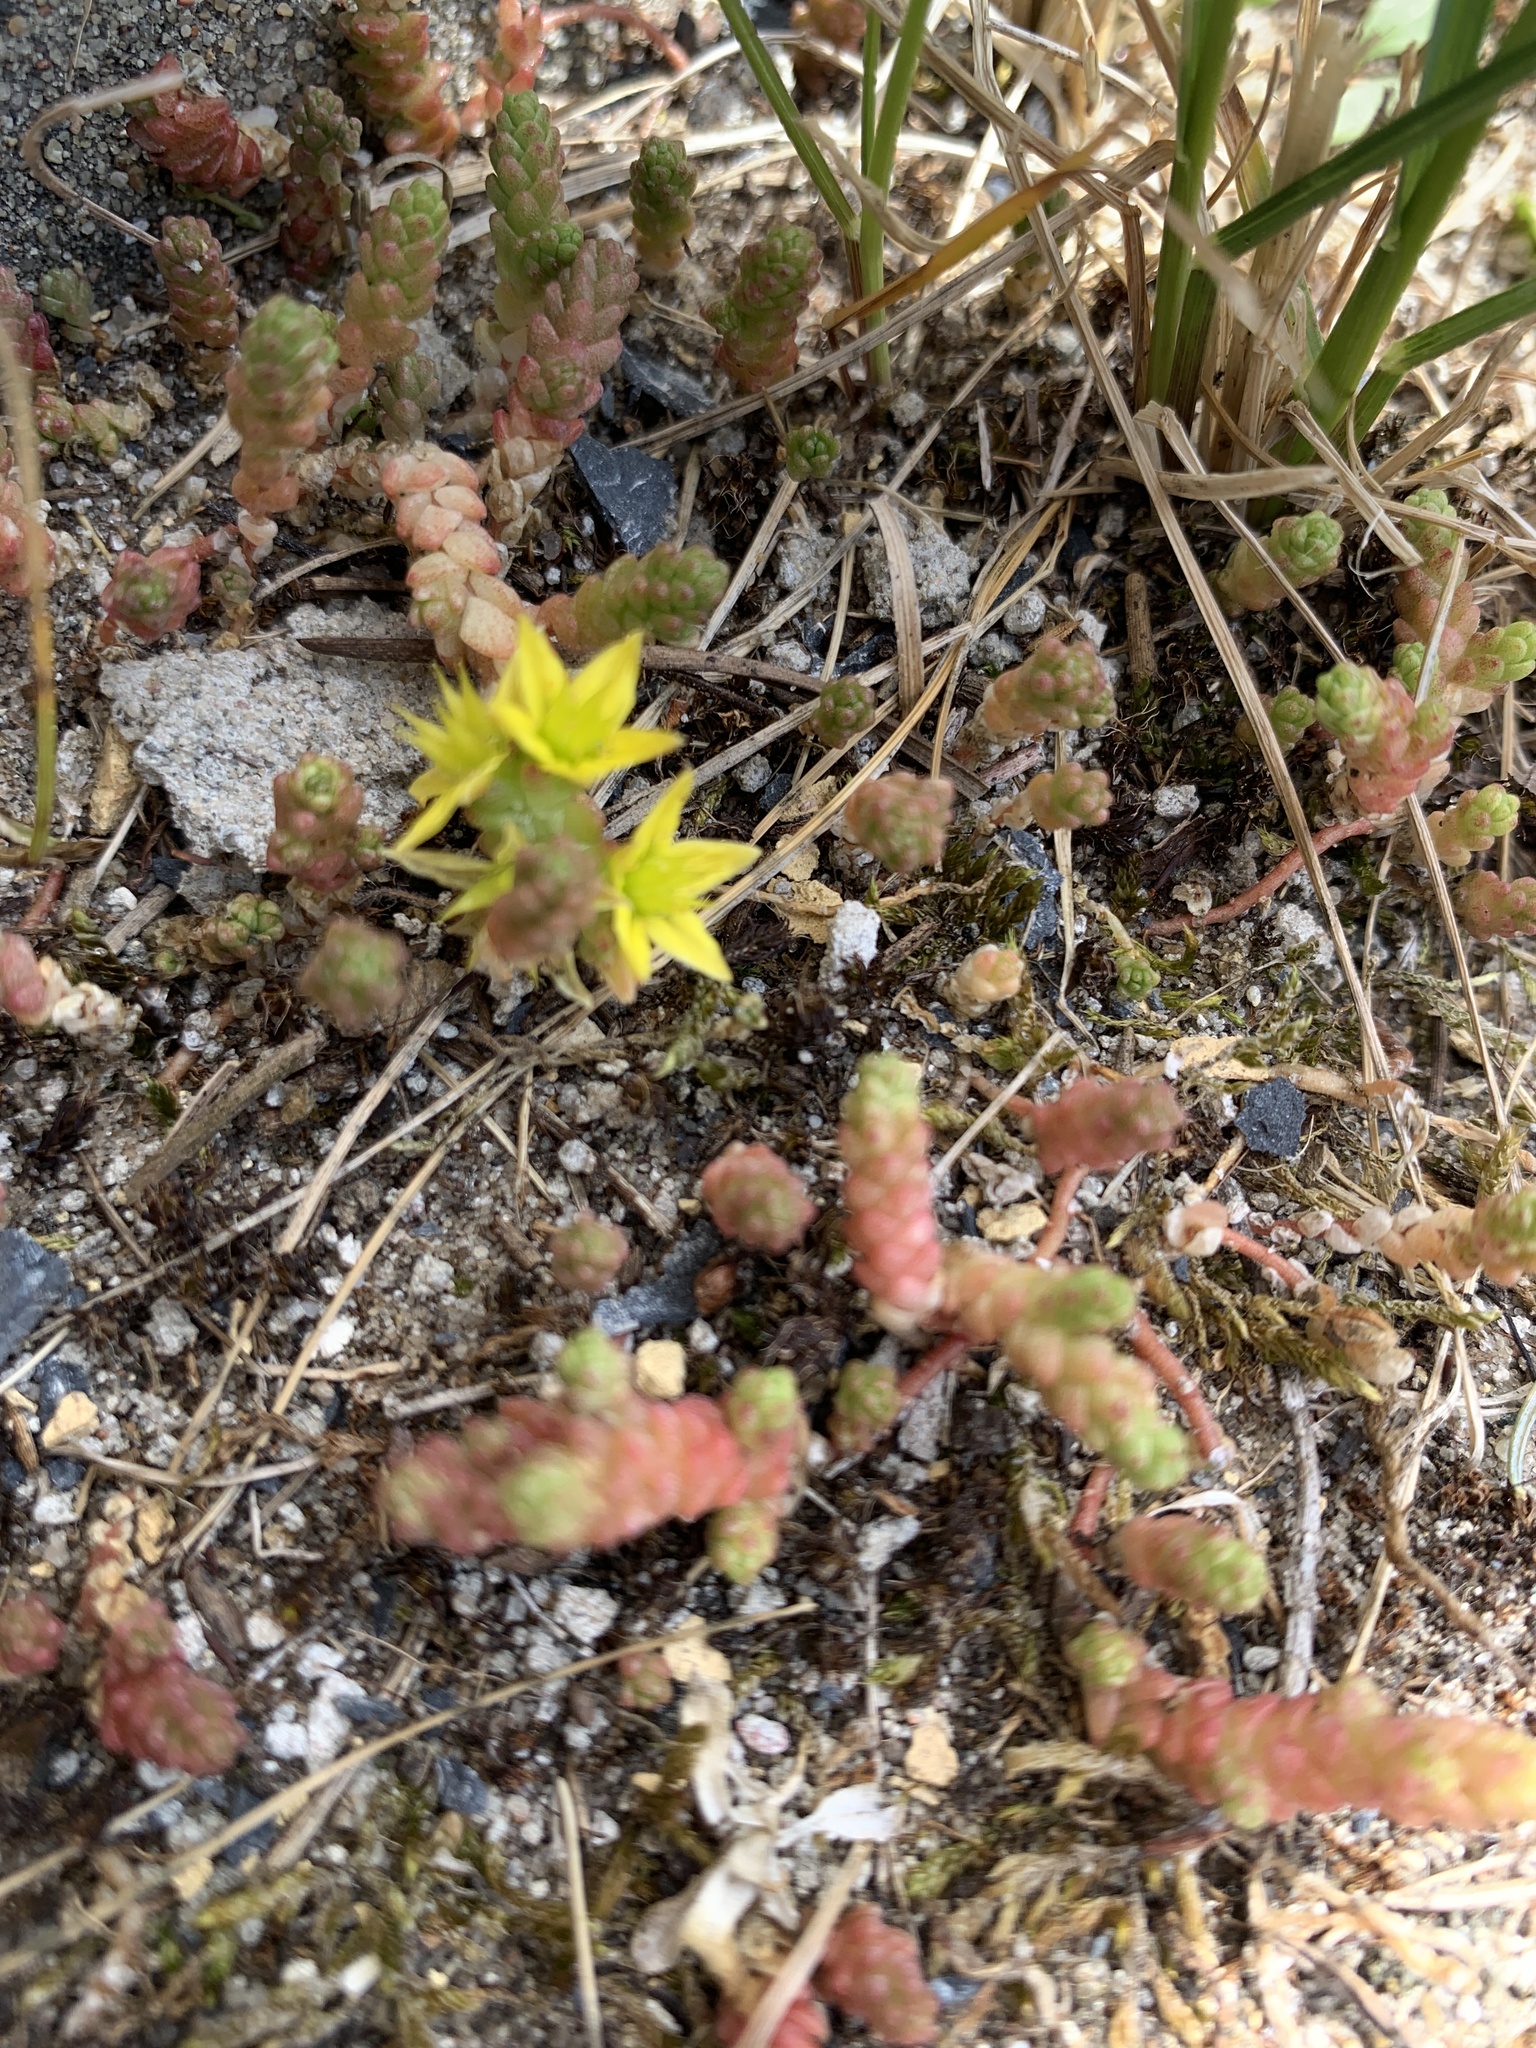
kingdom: Plantae
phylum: Tracheophyta
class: Magnoliopsida
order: Saxifragales
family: Crassulaceae
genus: Sedum
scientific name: Sedum acre
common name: Biting stonecrop
